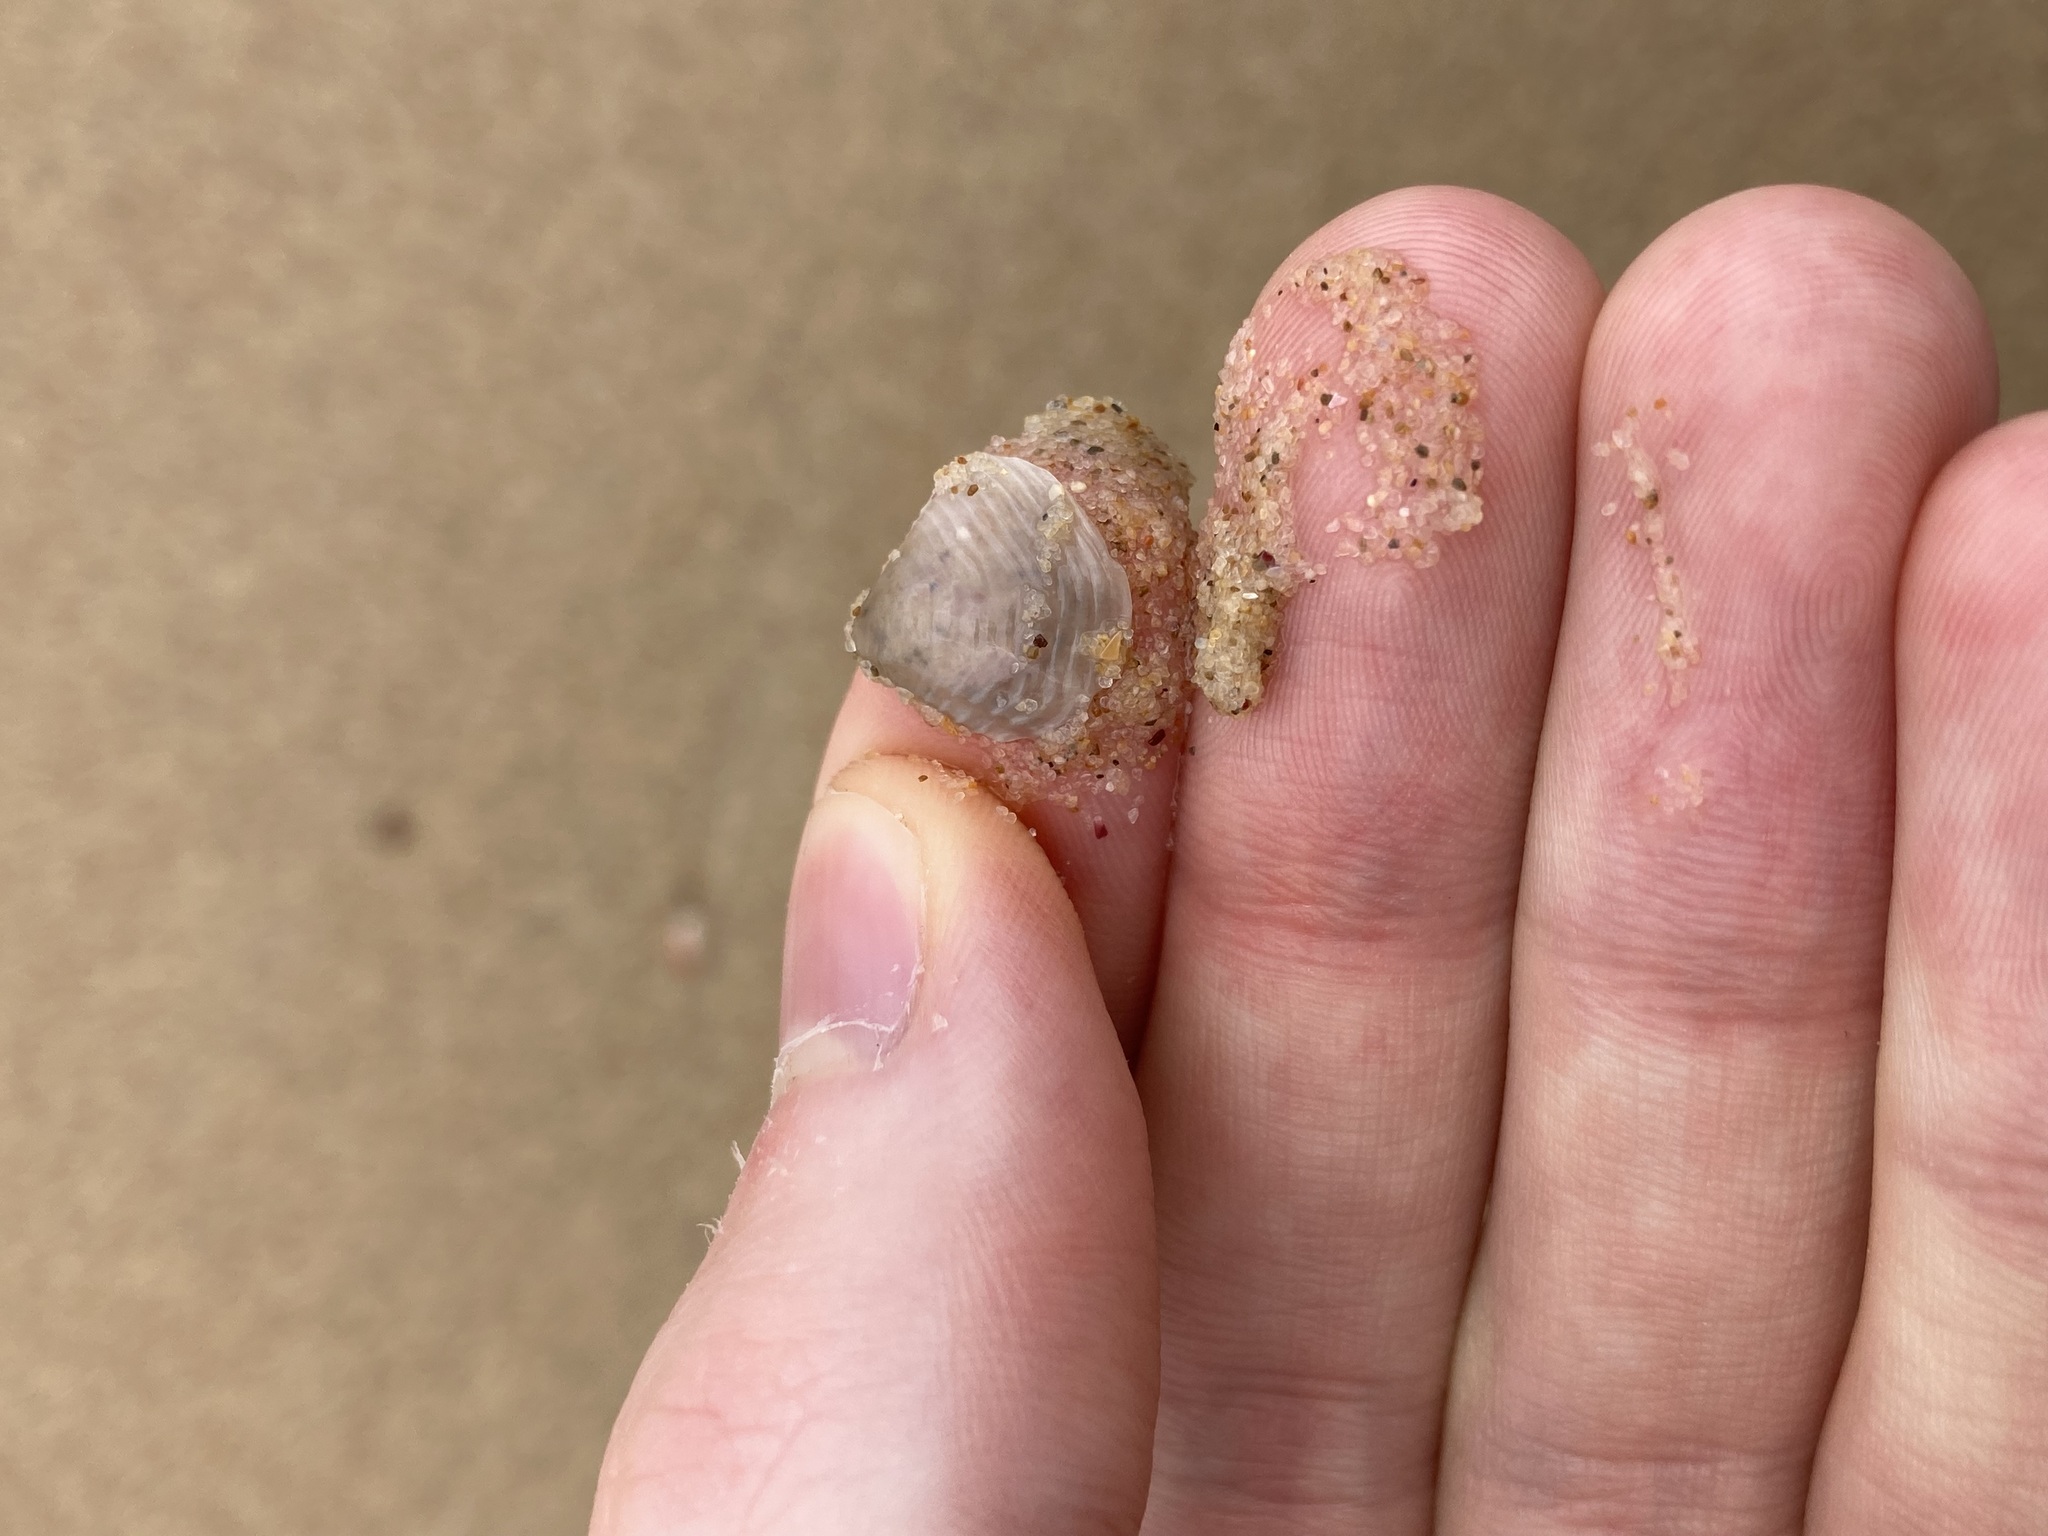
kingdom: Animalia
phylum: Mollusca
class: Bivalvia
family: Myochamidae
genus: Myadora
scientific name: Myadora brevis
